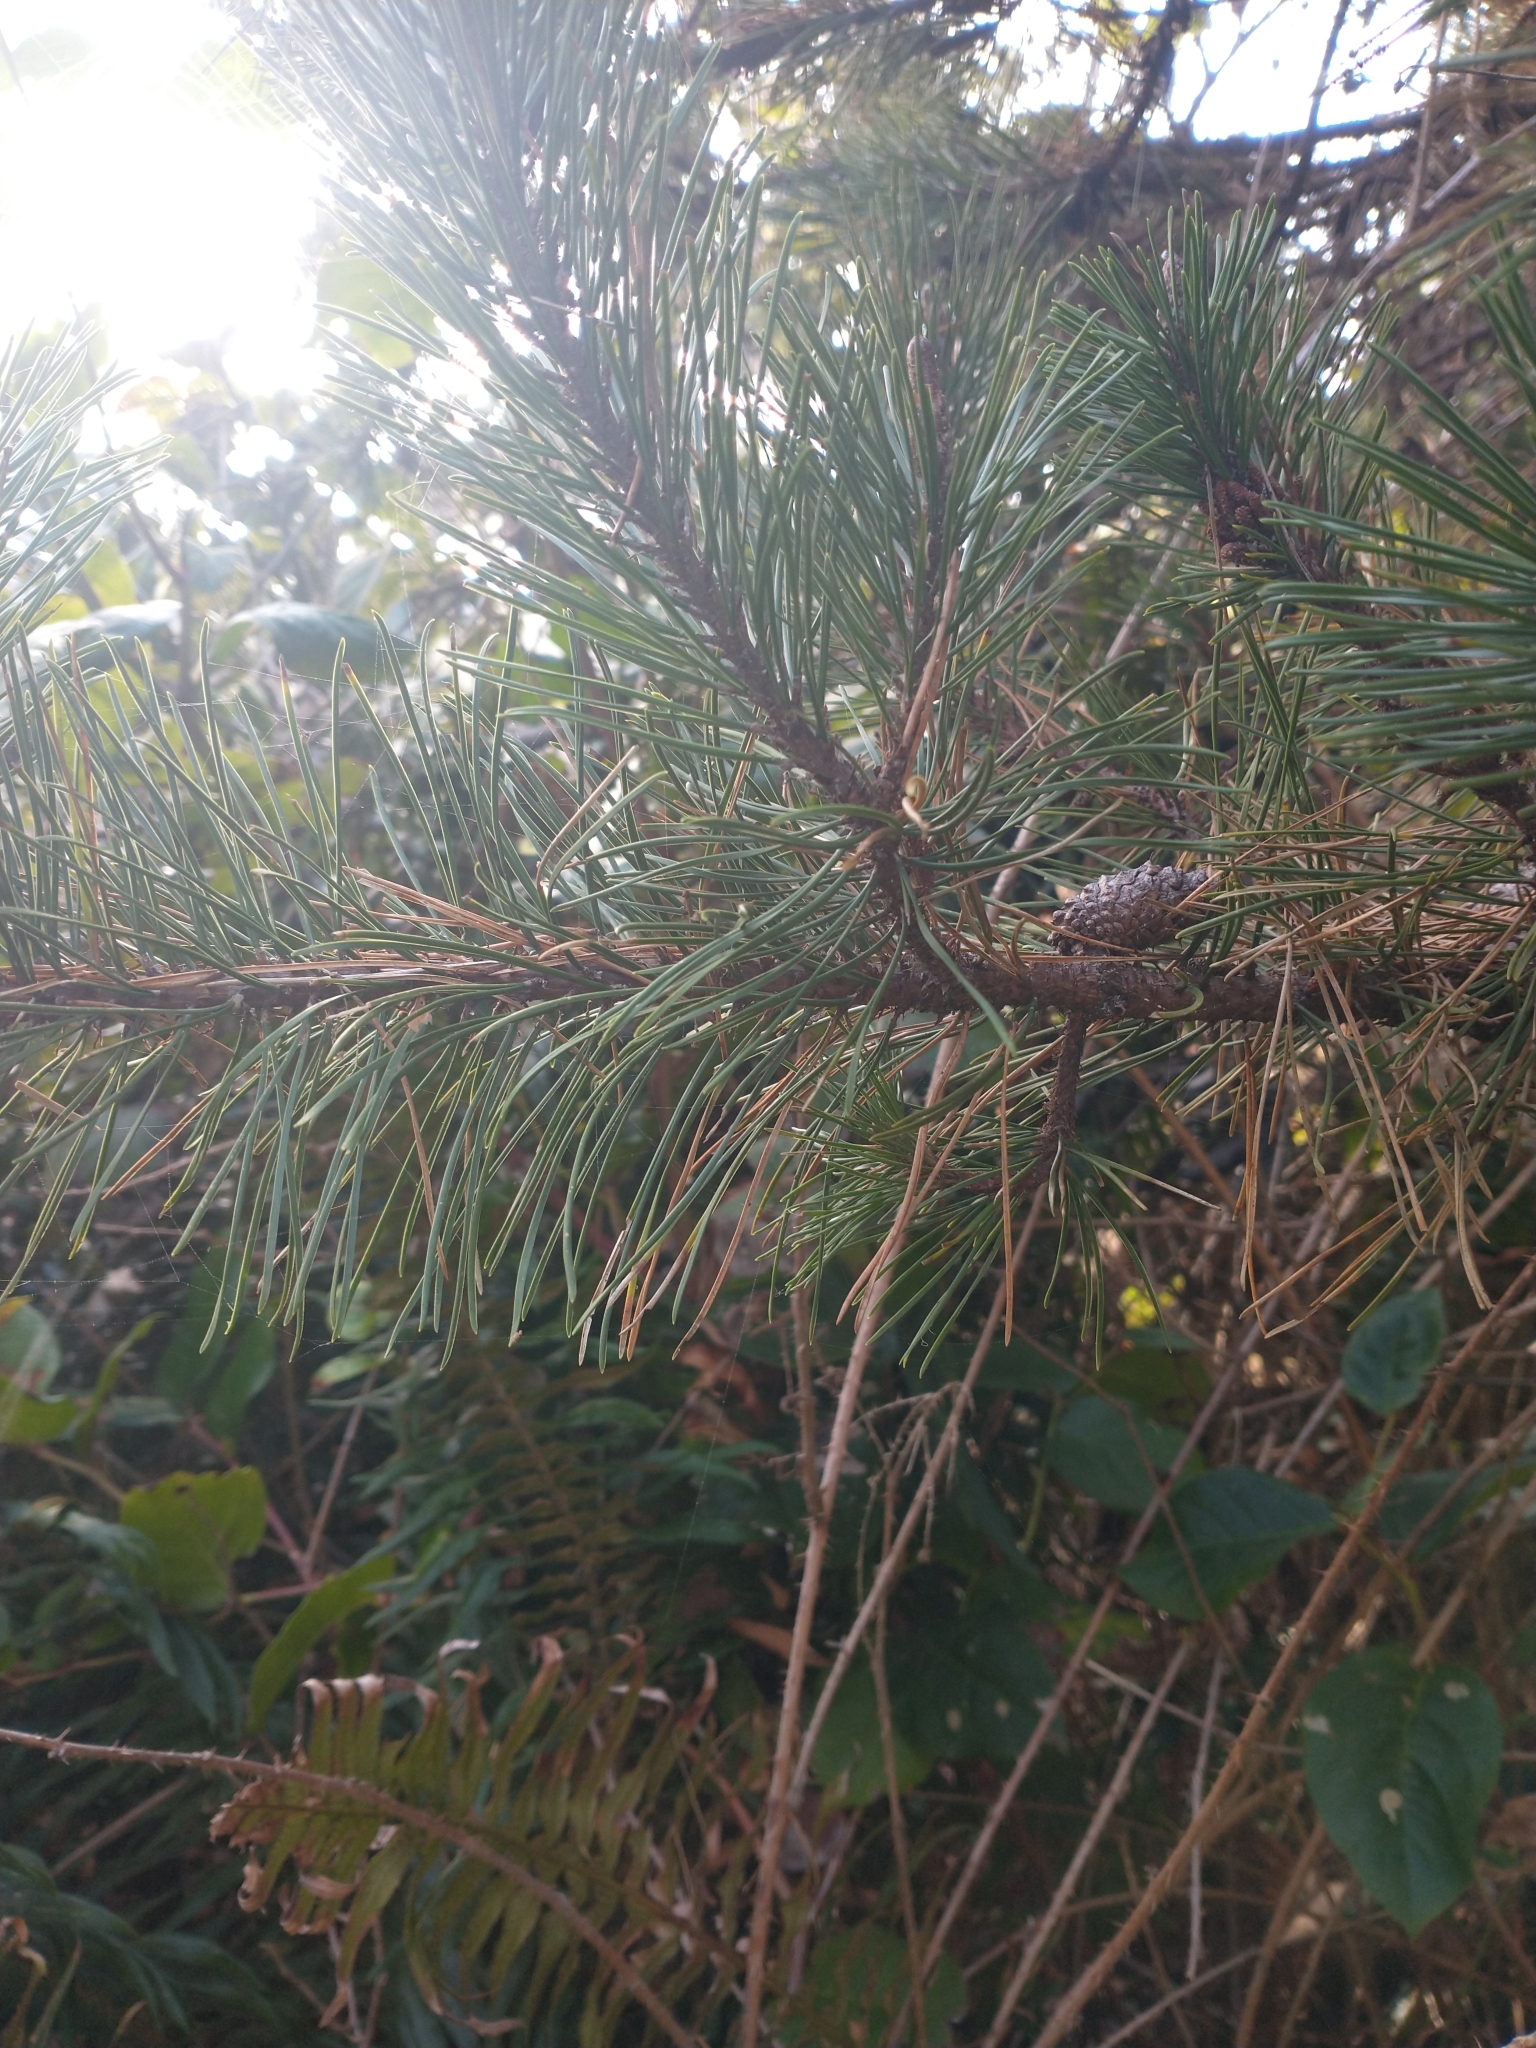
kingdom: Plantae
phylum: Tracheophyta
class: Pinopsida
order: Pinales
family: Pinaceae
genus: Pinus
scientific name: Pinus contorta
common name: Lodgepole pine
